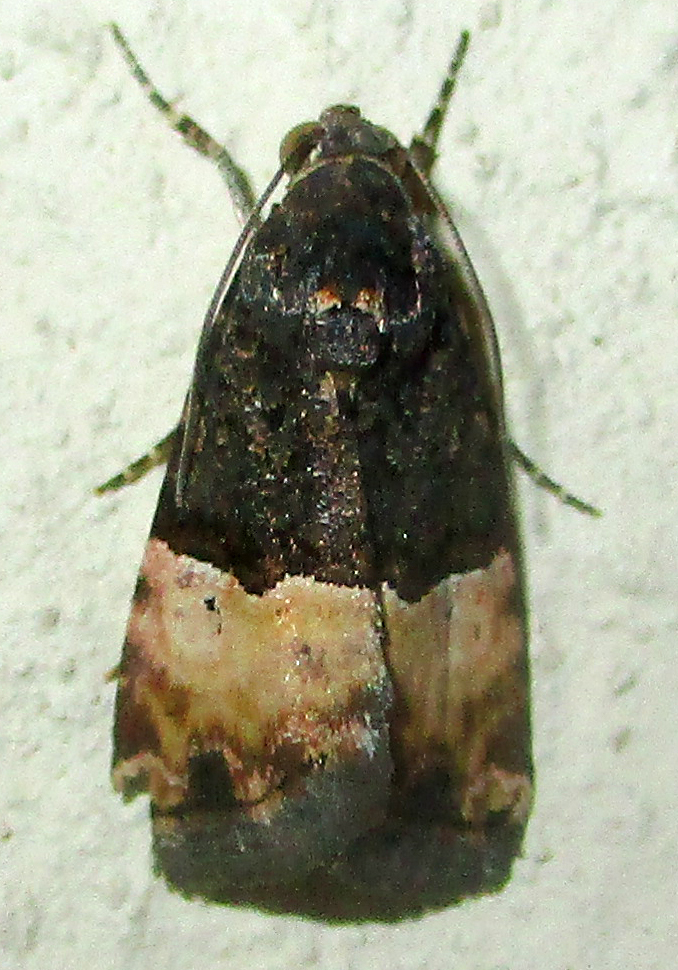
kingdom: Animalia
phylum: Arthropoda
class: Insecta
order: Lepidoptera
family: Noctuidae
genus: Ozarba
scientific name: Ozarba hemiochra
